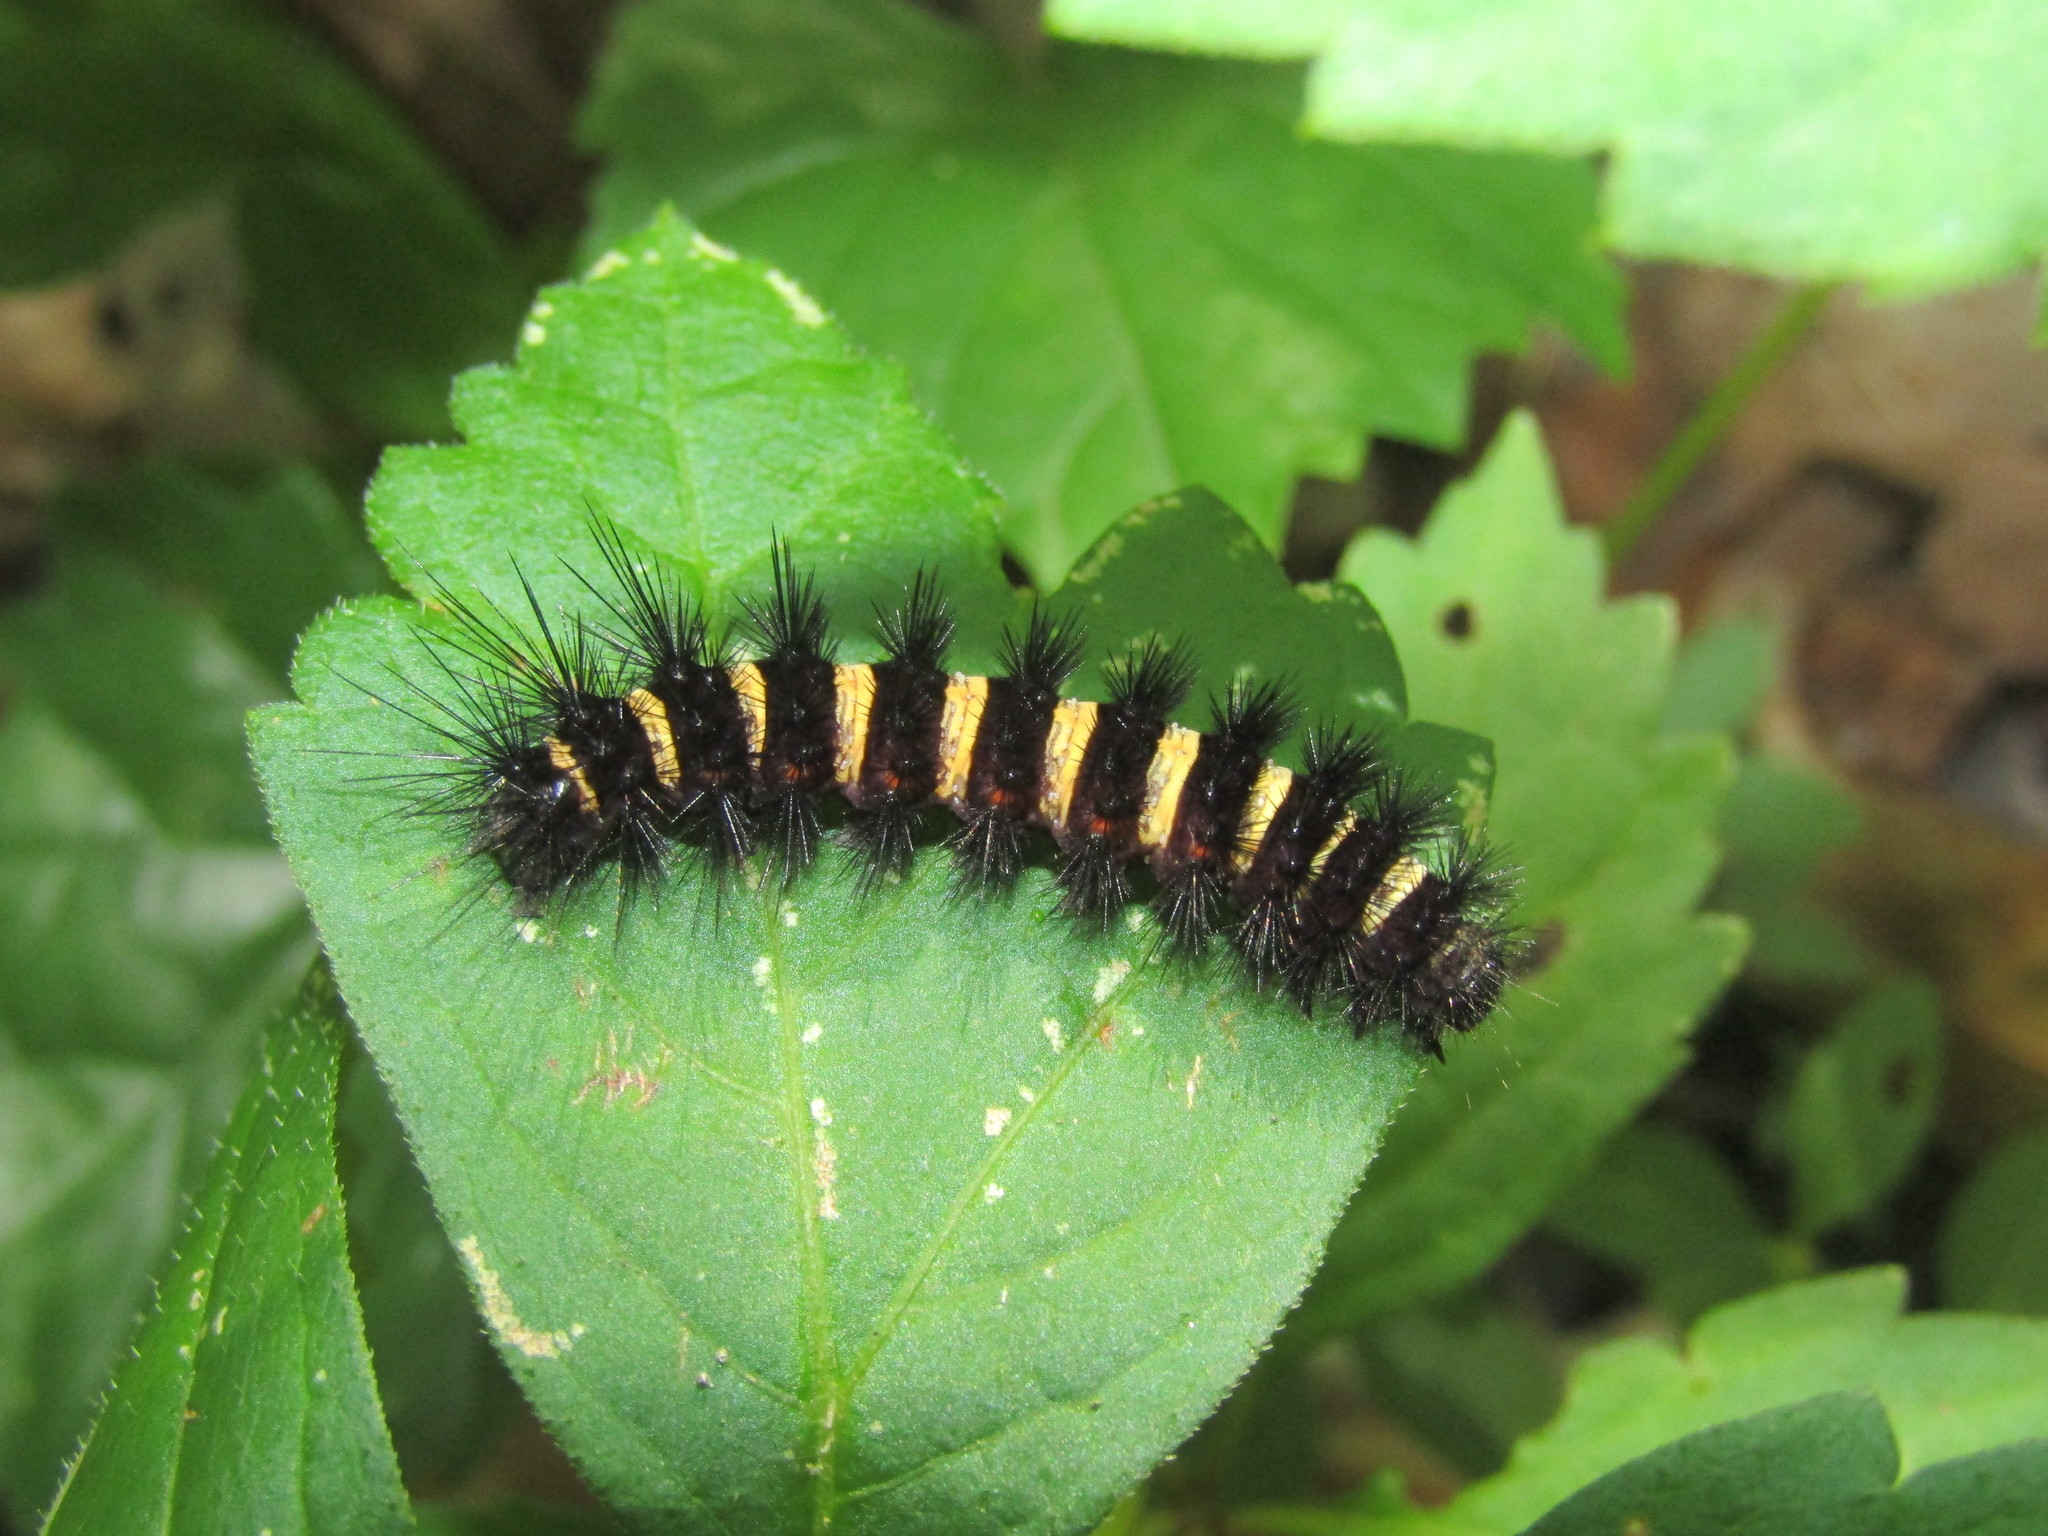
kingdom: Animalia
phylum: Arthropoda
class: Insecta
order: Lepidoptera
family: Erebidae
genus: Spilosoma
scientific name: Spilosoma congrua
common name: Agreeable tiger moth
